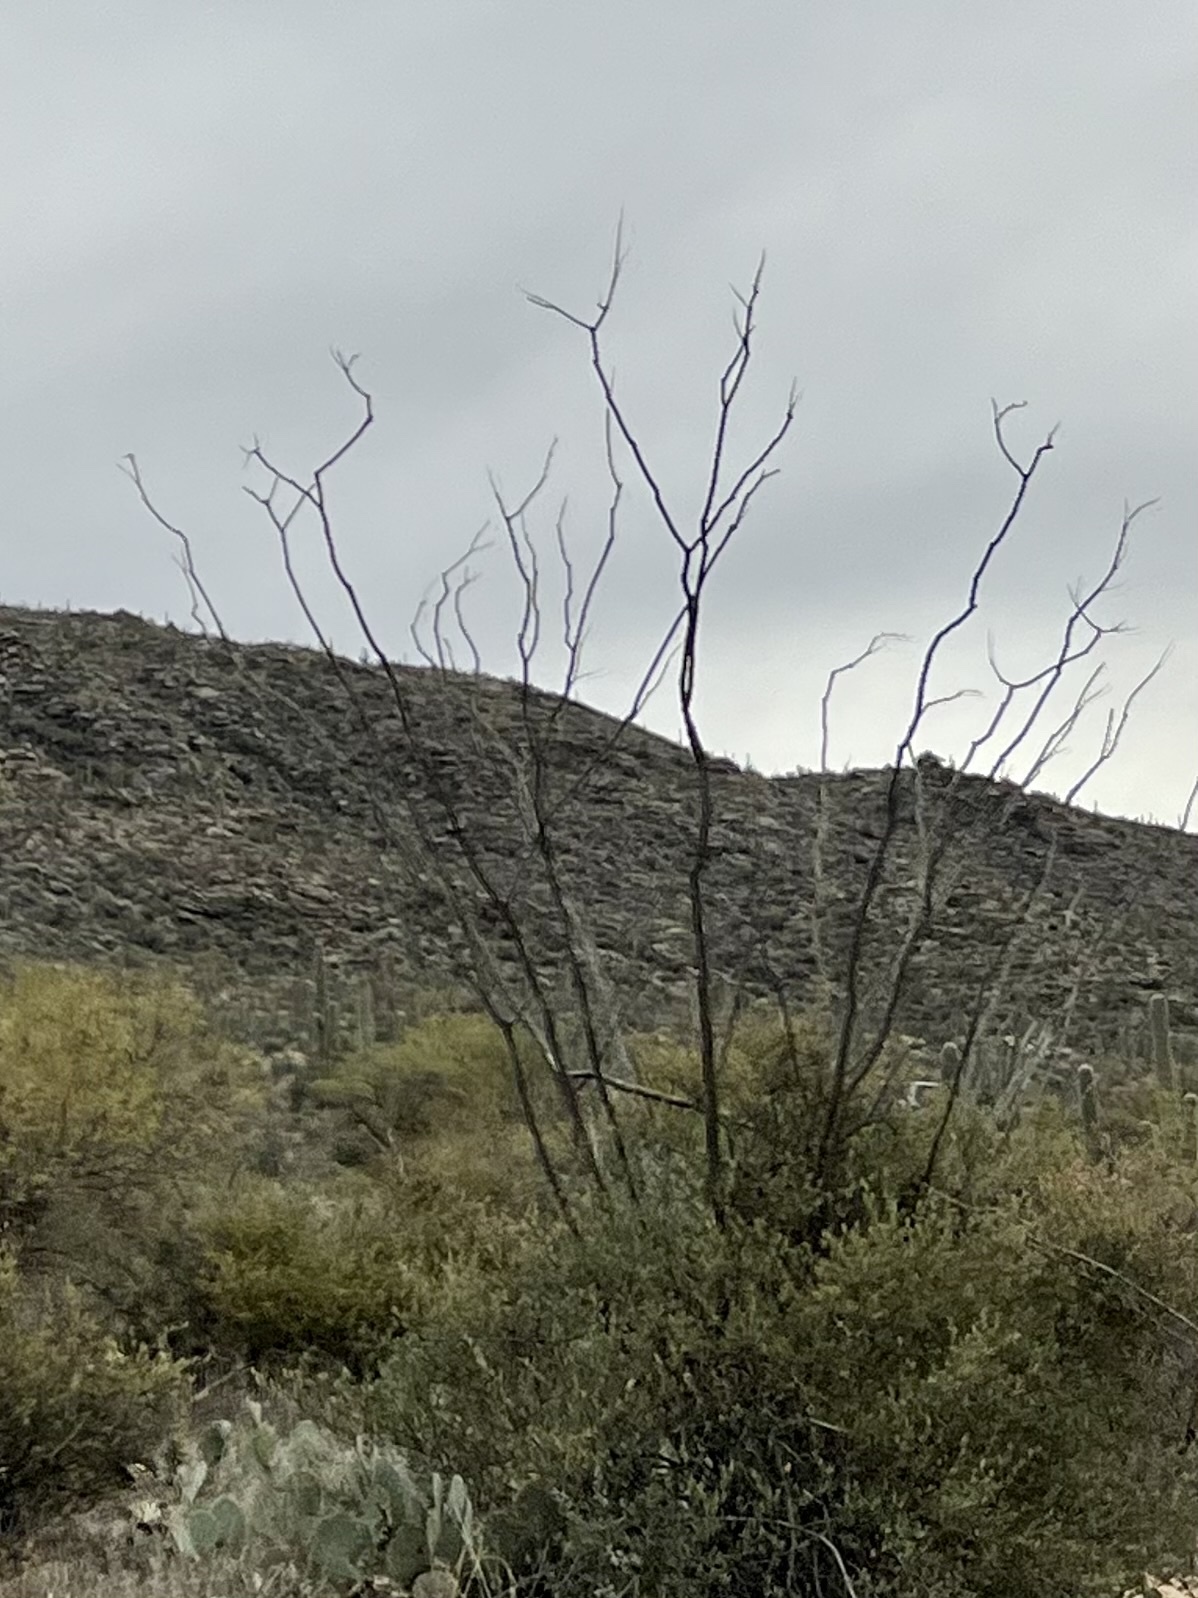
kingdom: Plantae
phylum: Tracheophyta
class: Magnoliopsida
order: Ericales
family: Fouquieriaceae
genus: Fouquieria
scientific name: Fouquieria splendens
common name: Vine-cactus
